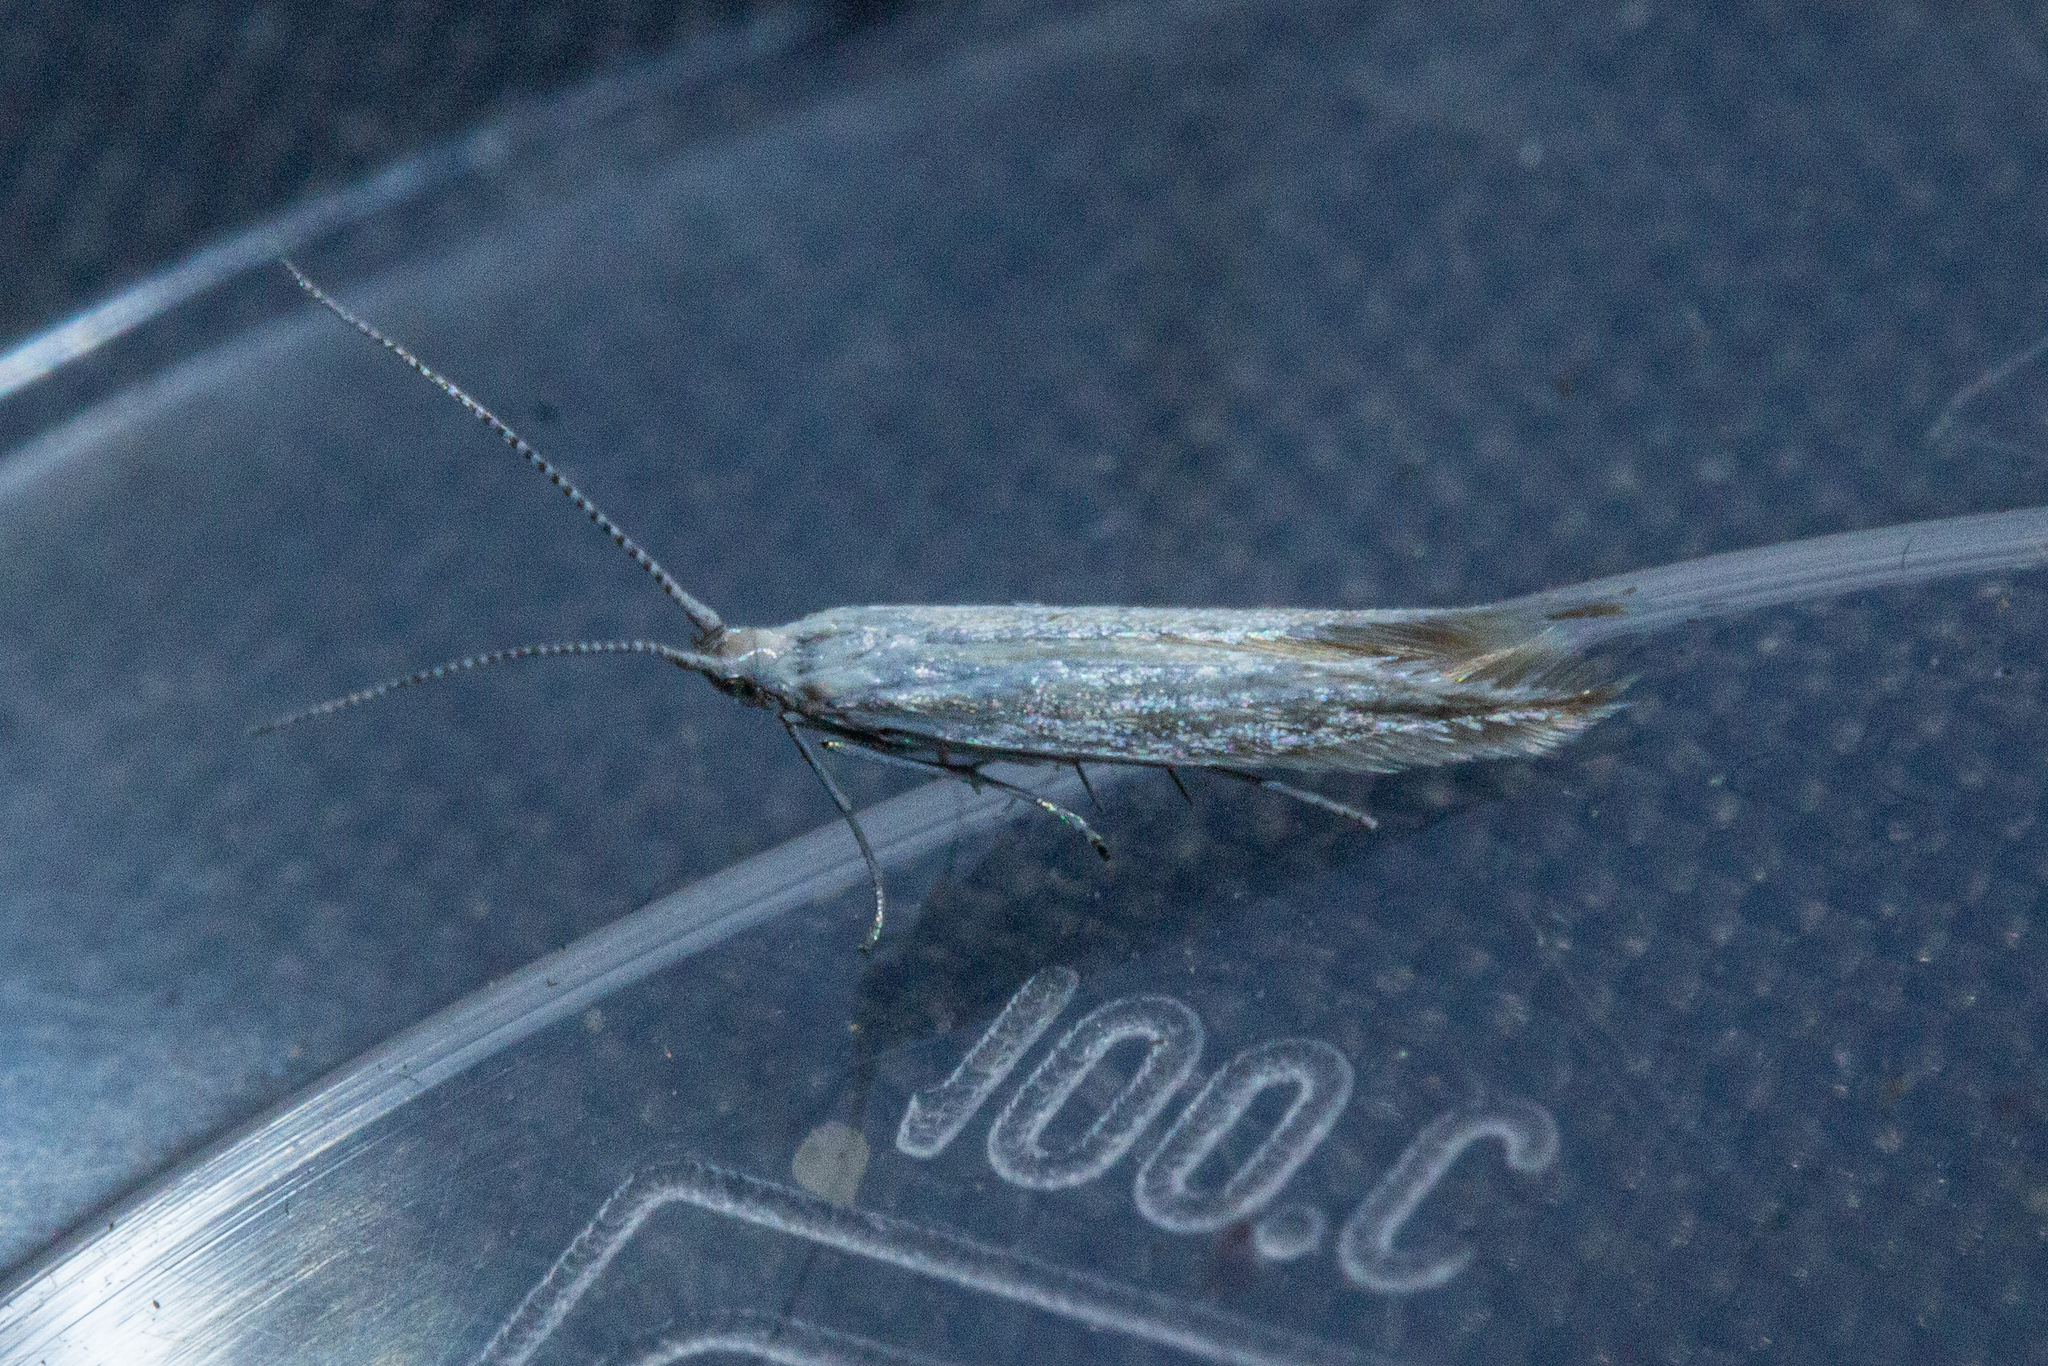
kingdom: Animalia
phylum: Arthropoda
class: Insecta
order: Lepidoptera
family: Coleophoridae
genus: Coleophora
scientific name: Coleophora striatipennella
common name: Hedge case-bearer
